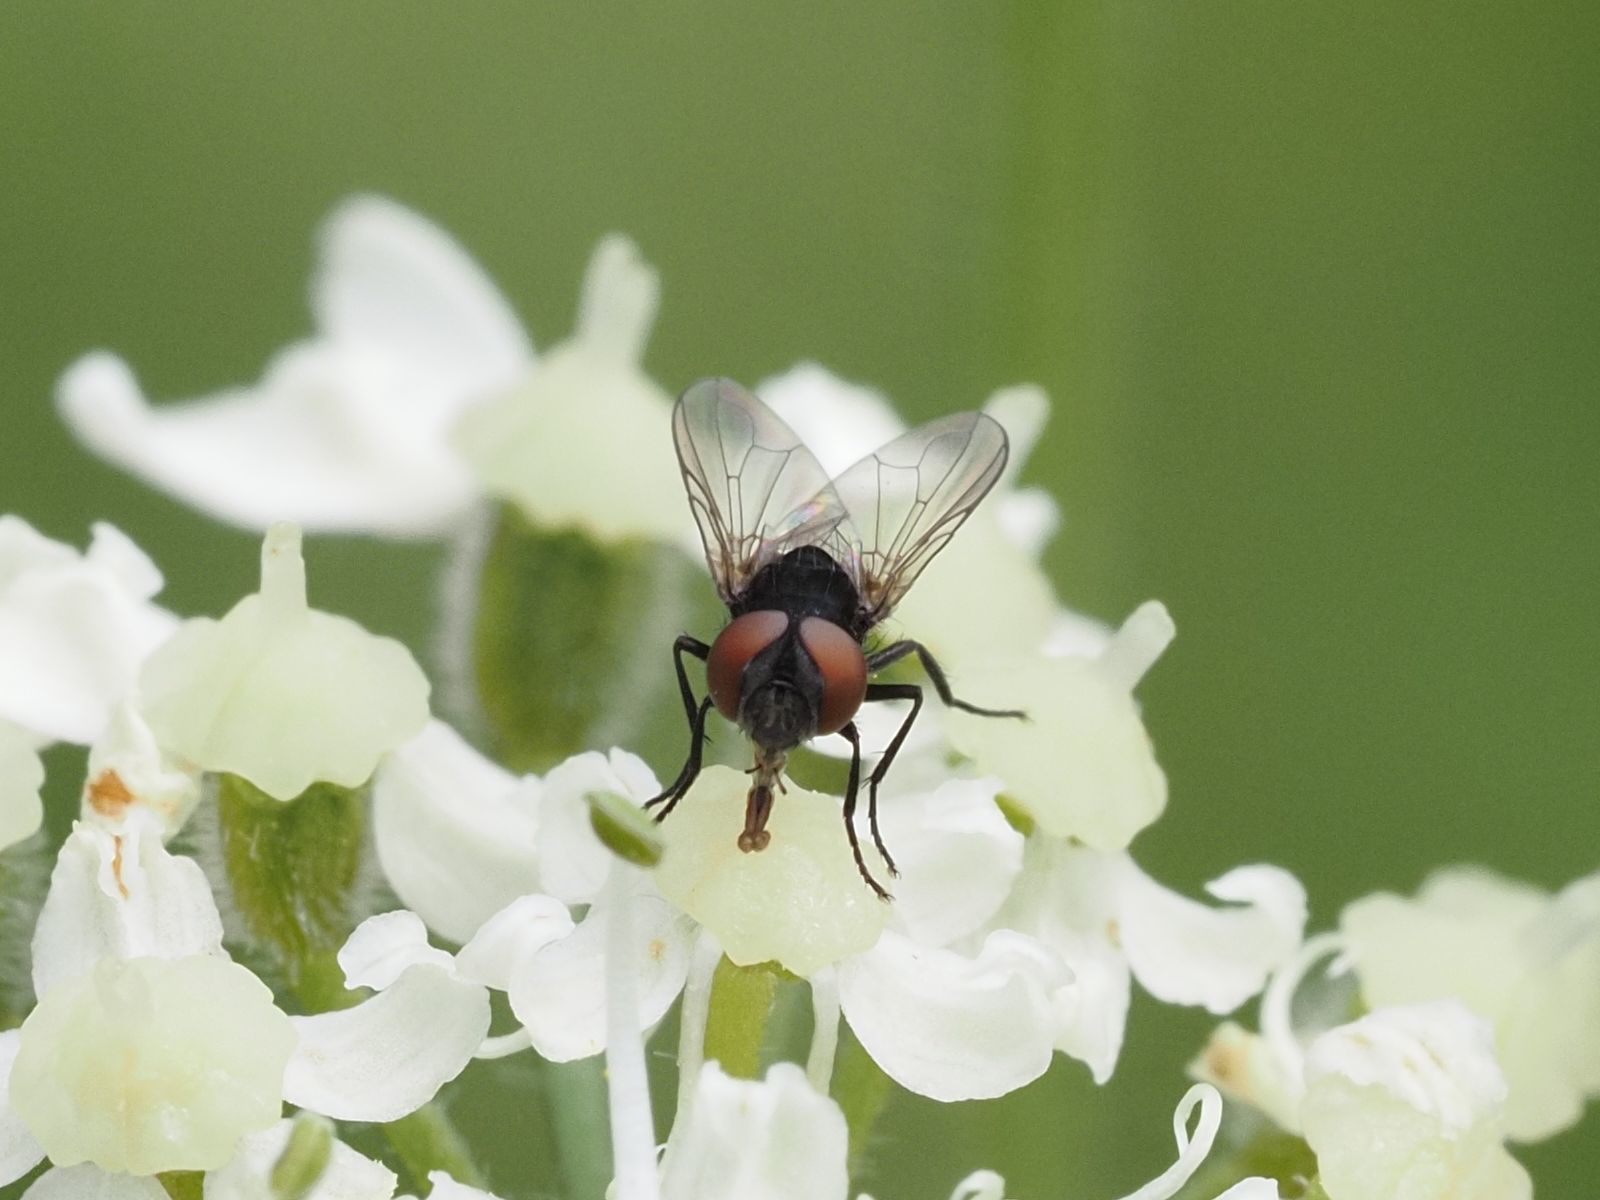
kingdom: Animalia
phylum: Arthropoda
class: Insecta
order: Diptera
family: Tachinidae
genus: Phasia
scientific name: Phasia barbifrons
